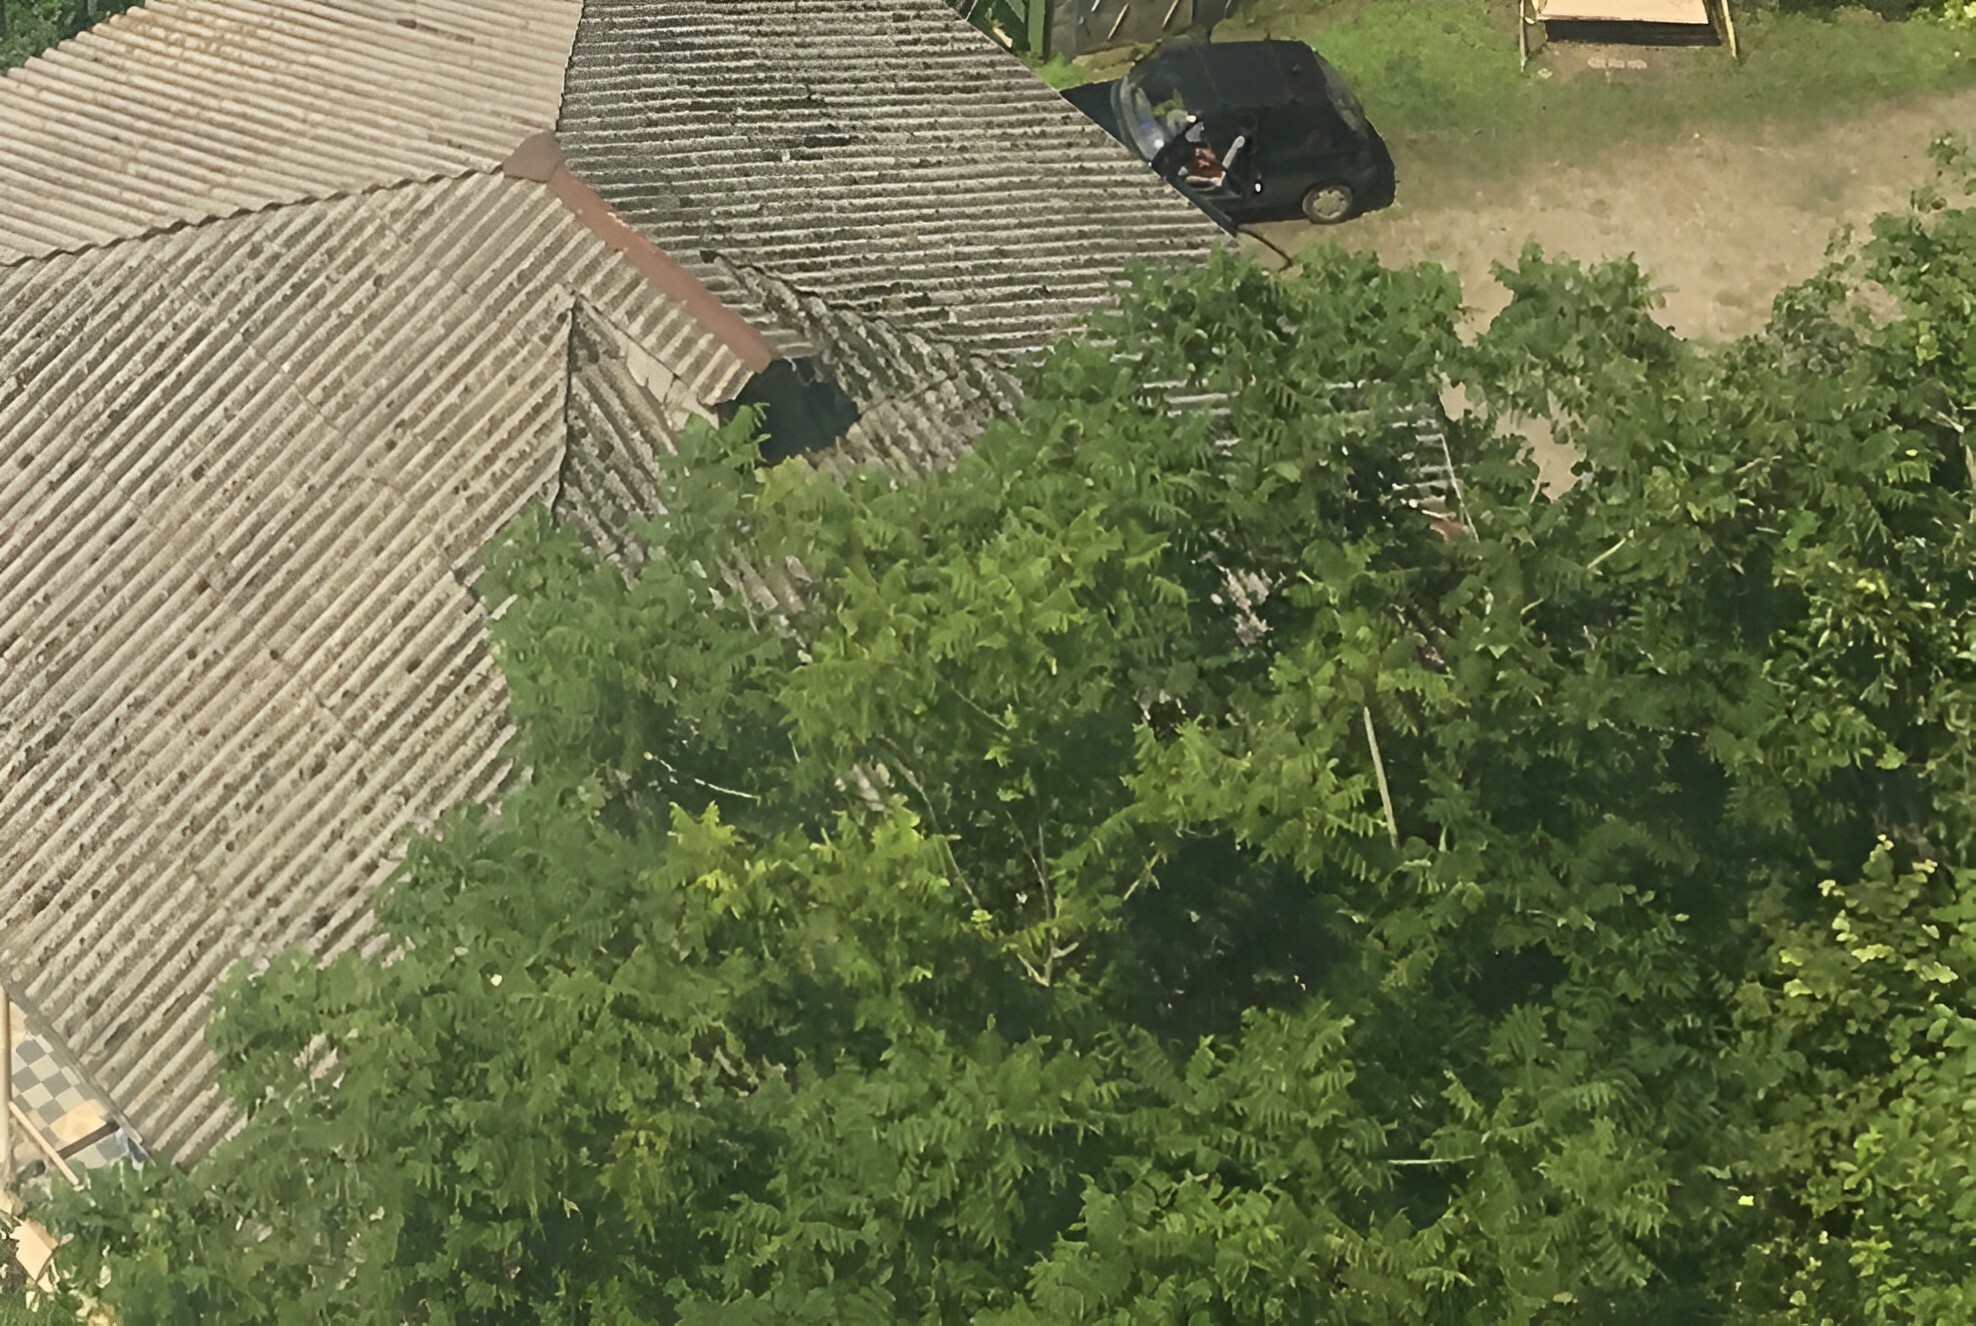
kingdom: Plantae
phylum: Tracheophyta
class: Magnoliopsida
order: Sapindales
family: Simaroubaceae
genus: Ailanthus
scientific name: Ailanthus altissima
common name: Tree-of-heaven
